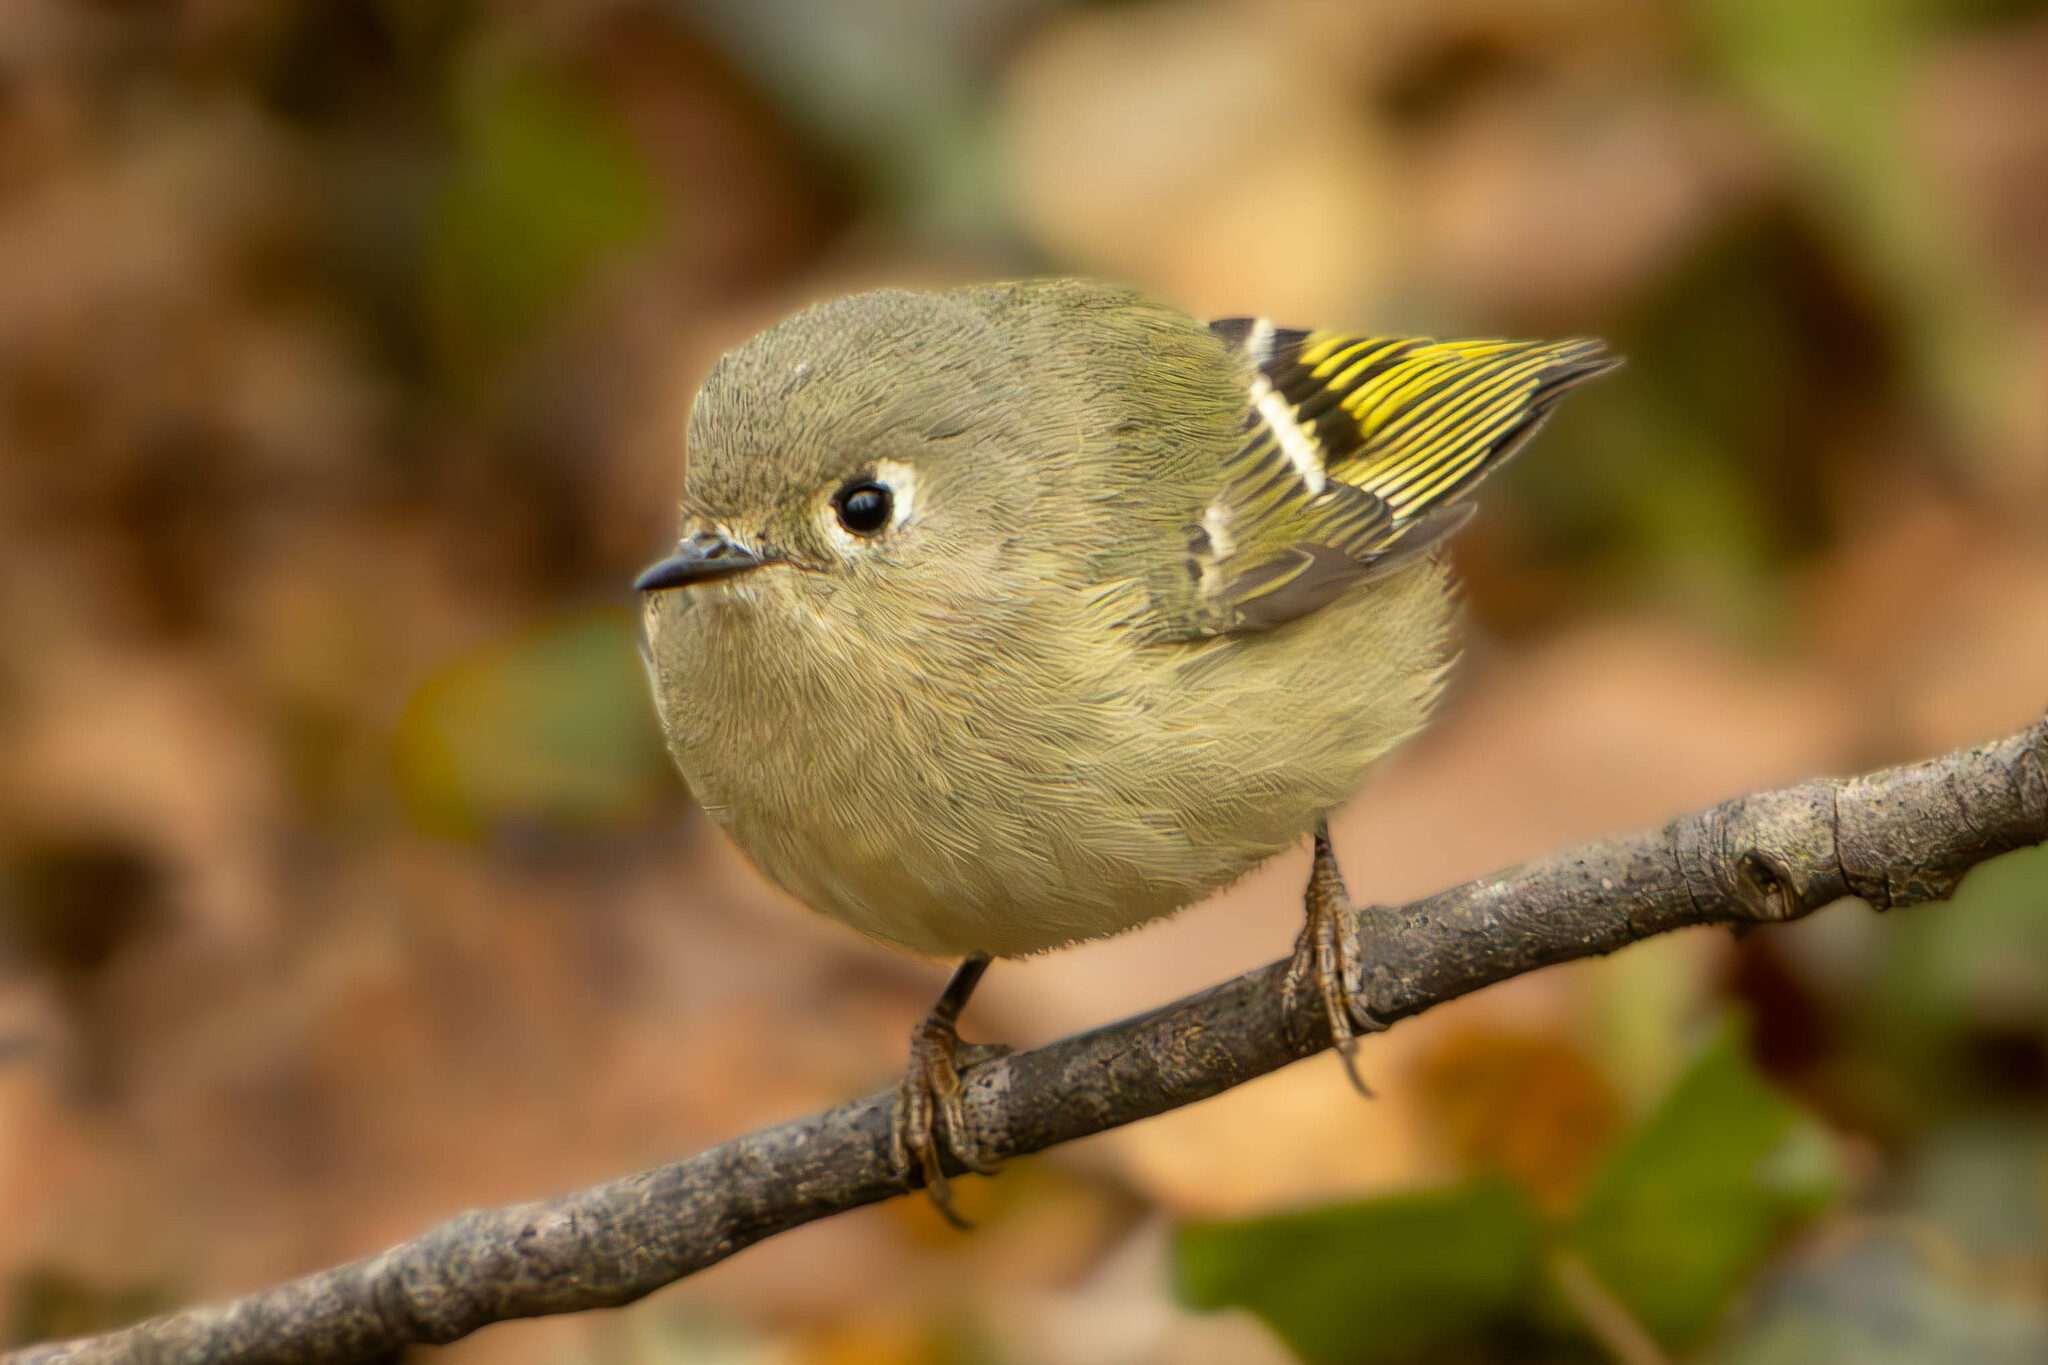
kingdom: Animalia
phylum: Chordata
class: Aves
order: Passeriformes
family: Regulidae
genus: Regulus
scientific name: Regulus calendula
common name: Ruby-crowned kinglet
